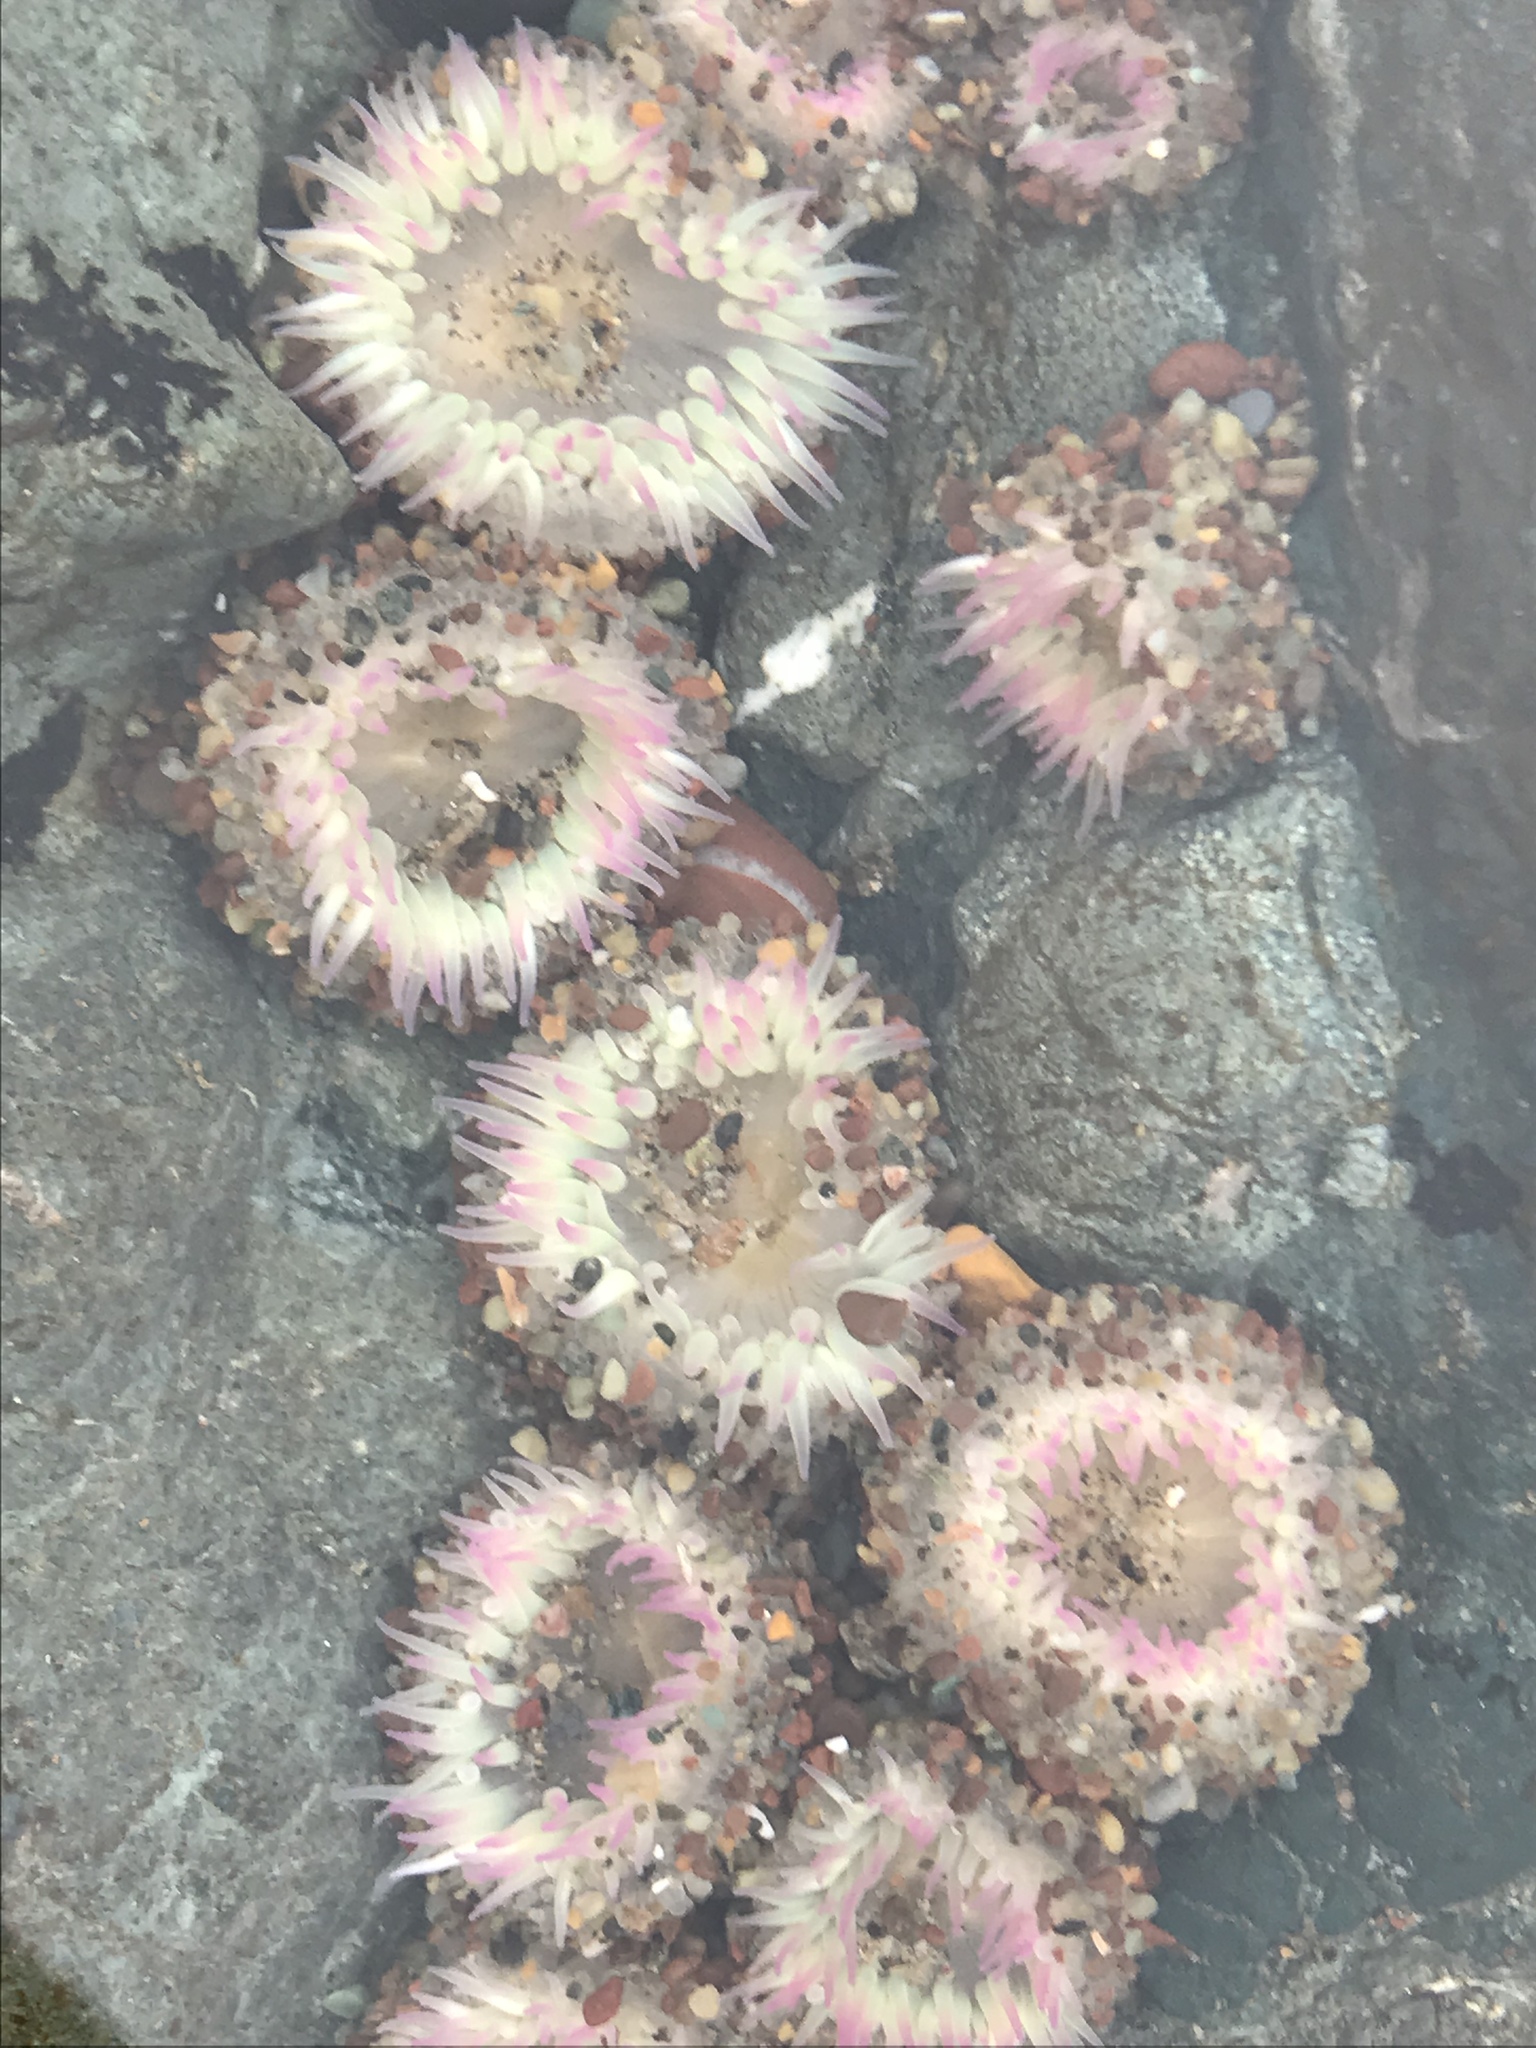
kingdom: Animalia
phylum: Cnidaria
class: Anthozoa
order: Actiniaria
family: Actiniidae
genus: Anthopleura
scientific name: Anthopleura elegantissima
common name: Clonal anemone
